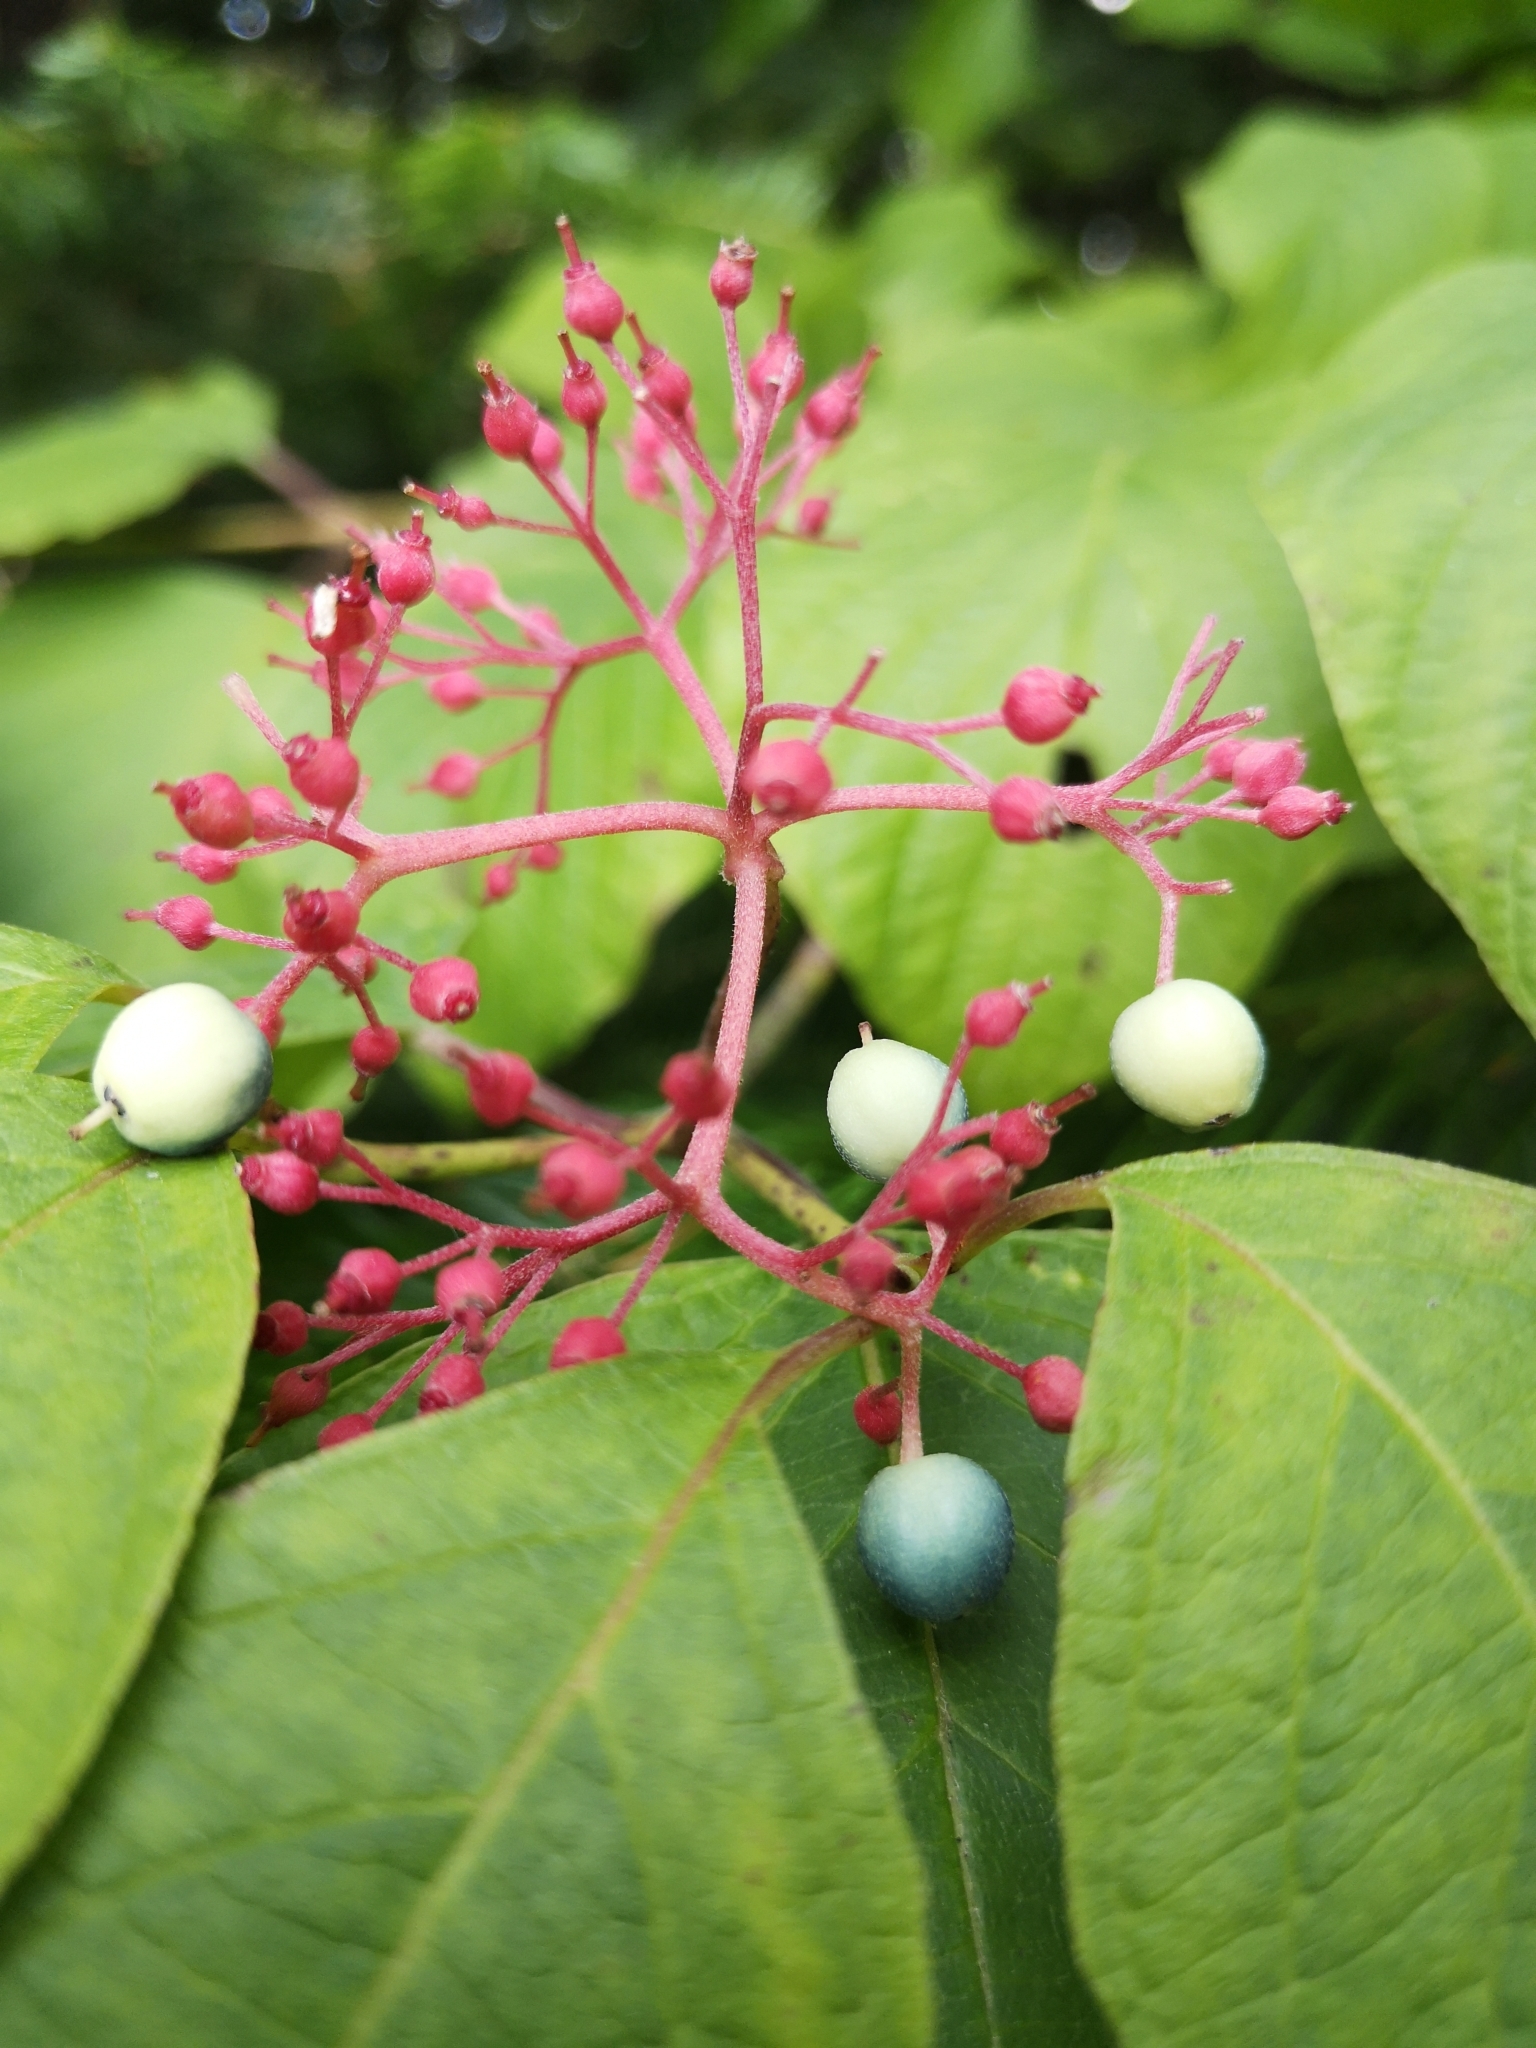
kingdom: Plantae
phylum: Tracheophyta
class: Magnoliopsida
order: Cornales
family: Cornaceae
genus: Cornus
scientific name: Cornus rugosa
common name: Round-leaf dogwood
